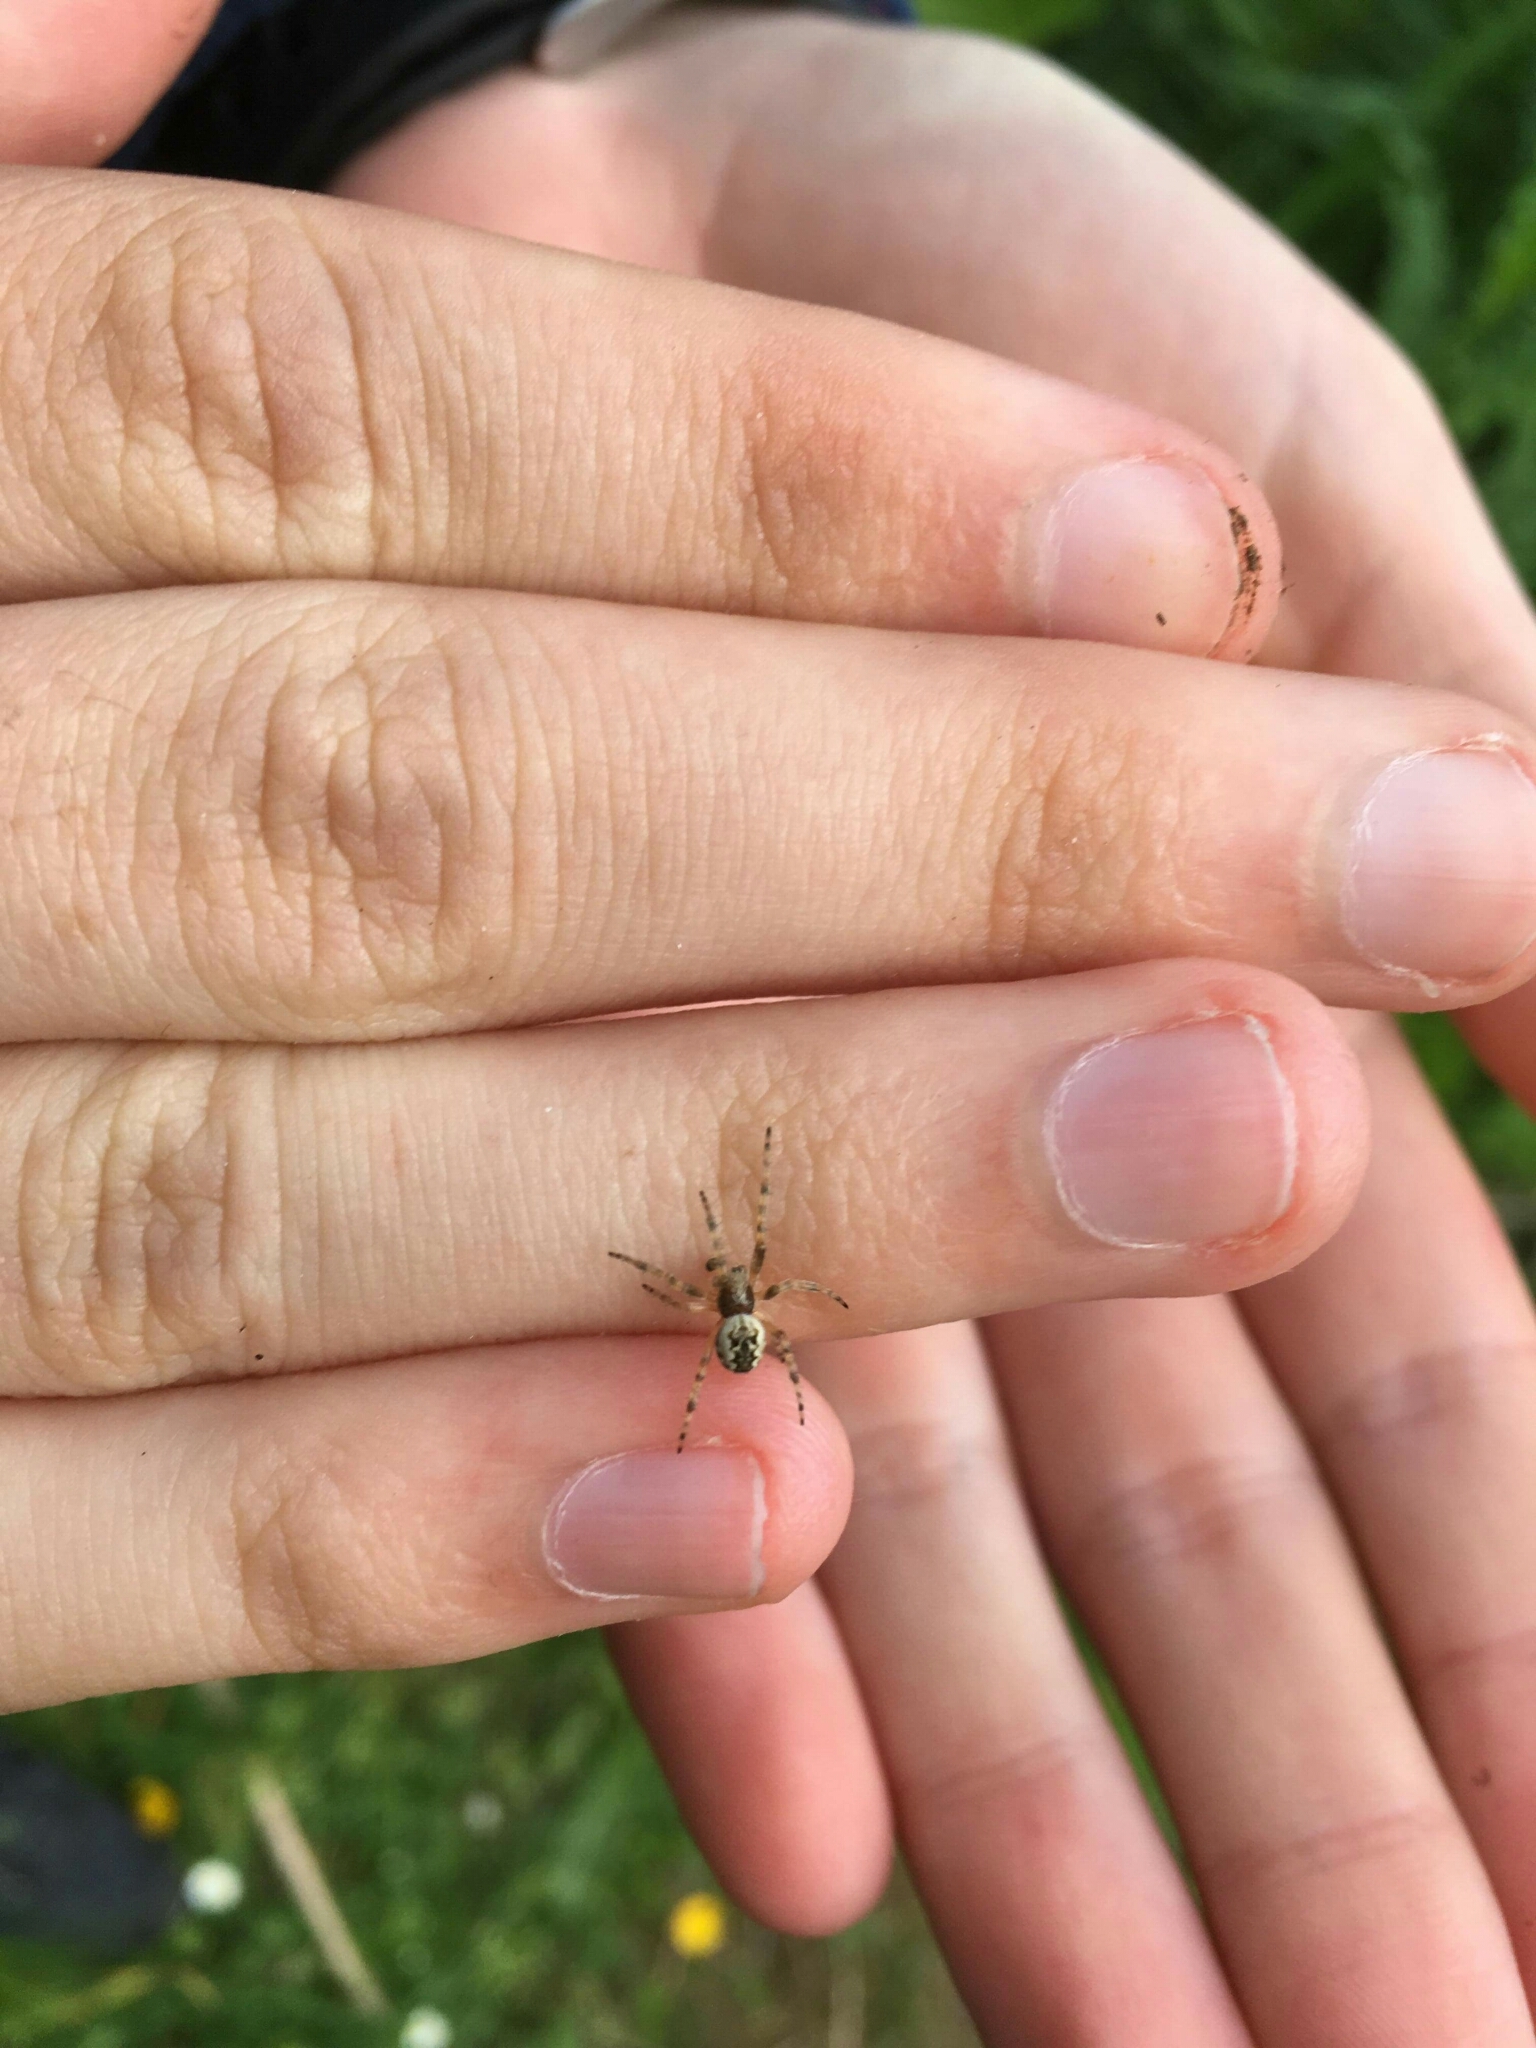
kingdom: Animalia
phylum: Arthropoda
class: Arachnida
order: Araneae
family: Araneidae
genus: Salsa
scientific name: Salsa fuliginata
